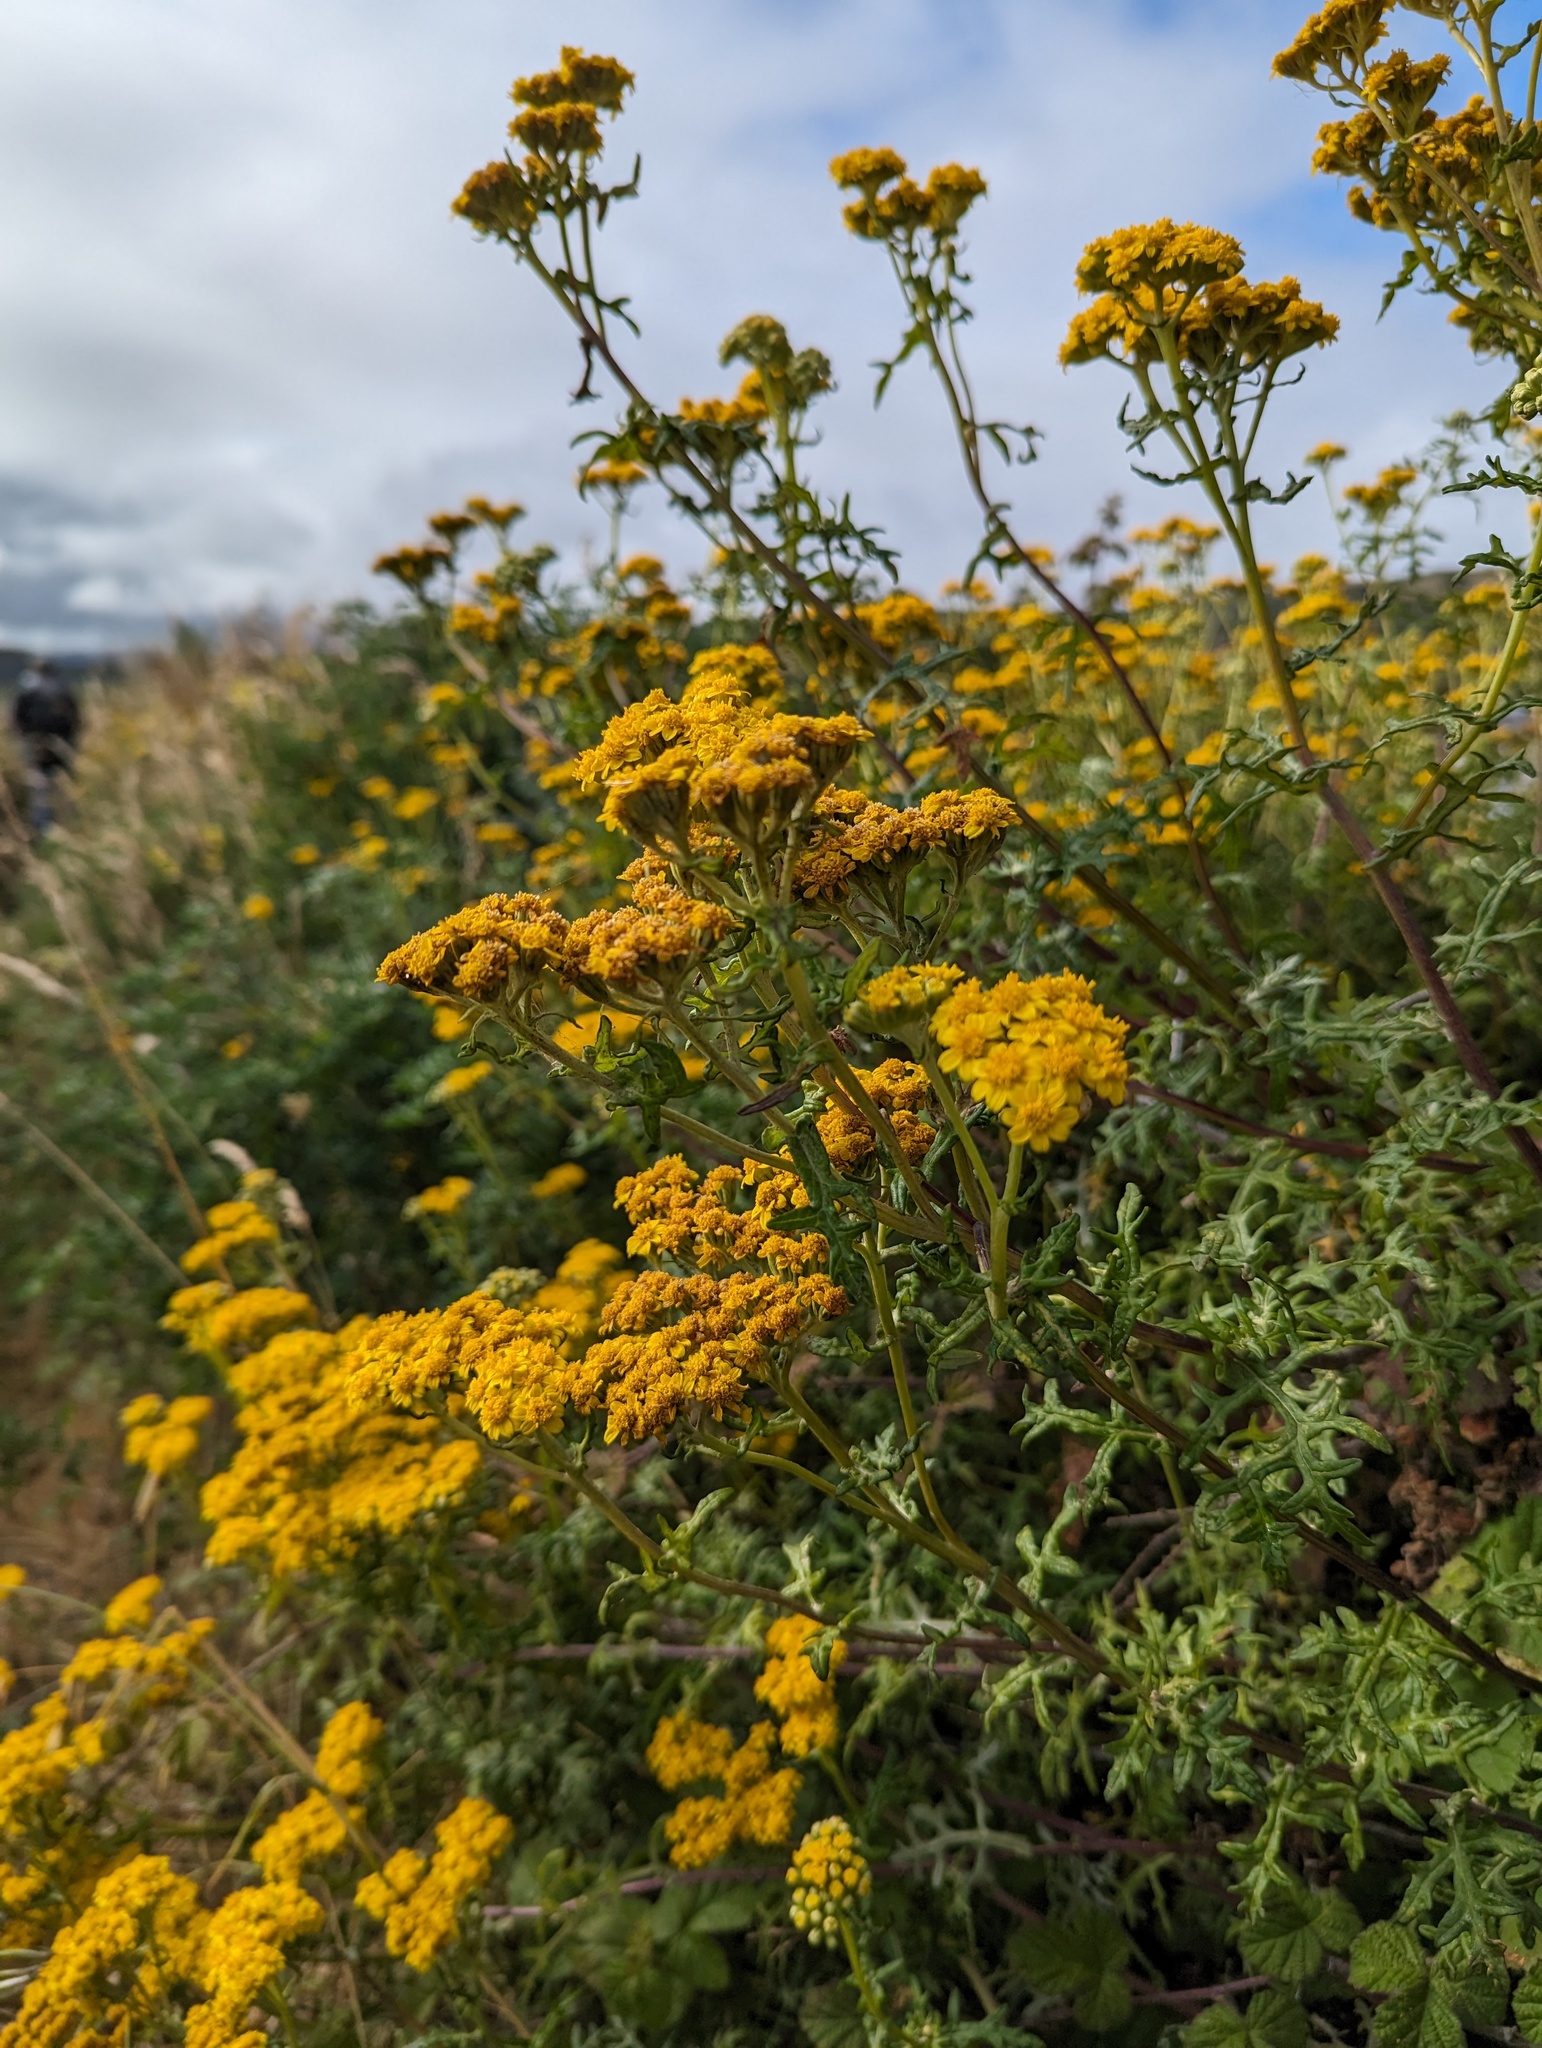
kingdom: Plantae
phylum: Tracheophyta
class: Magnoliopsida
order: Asterales
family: Asteraceae
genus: Eriophyllum
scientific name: Eriophyllum staechadifolium
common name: Lizardtail
